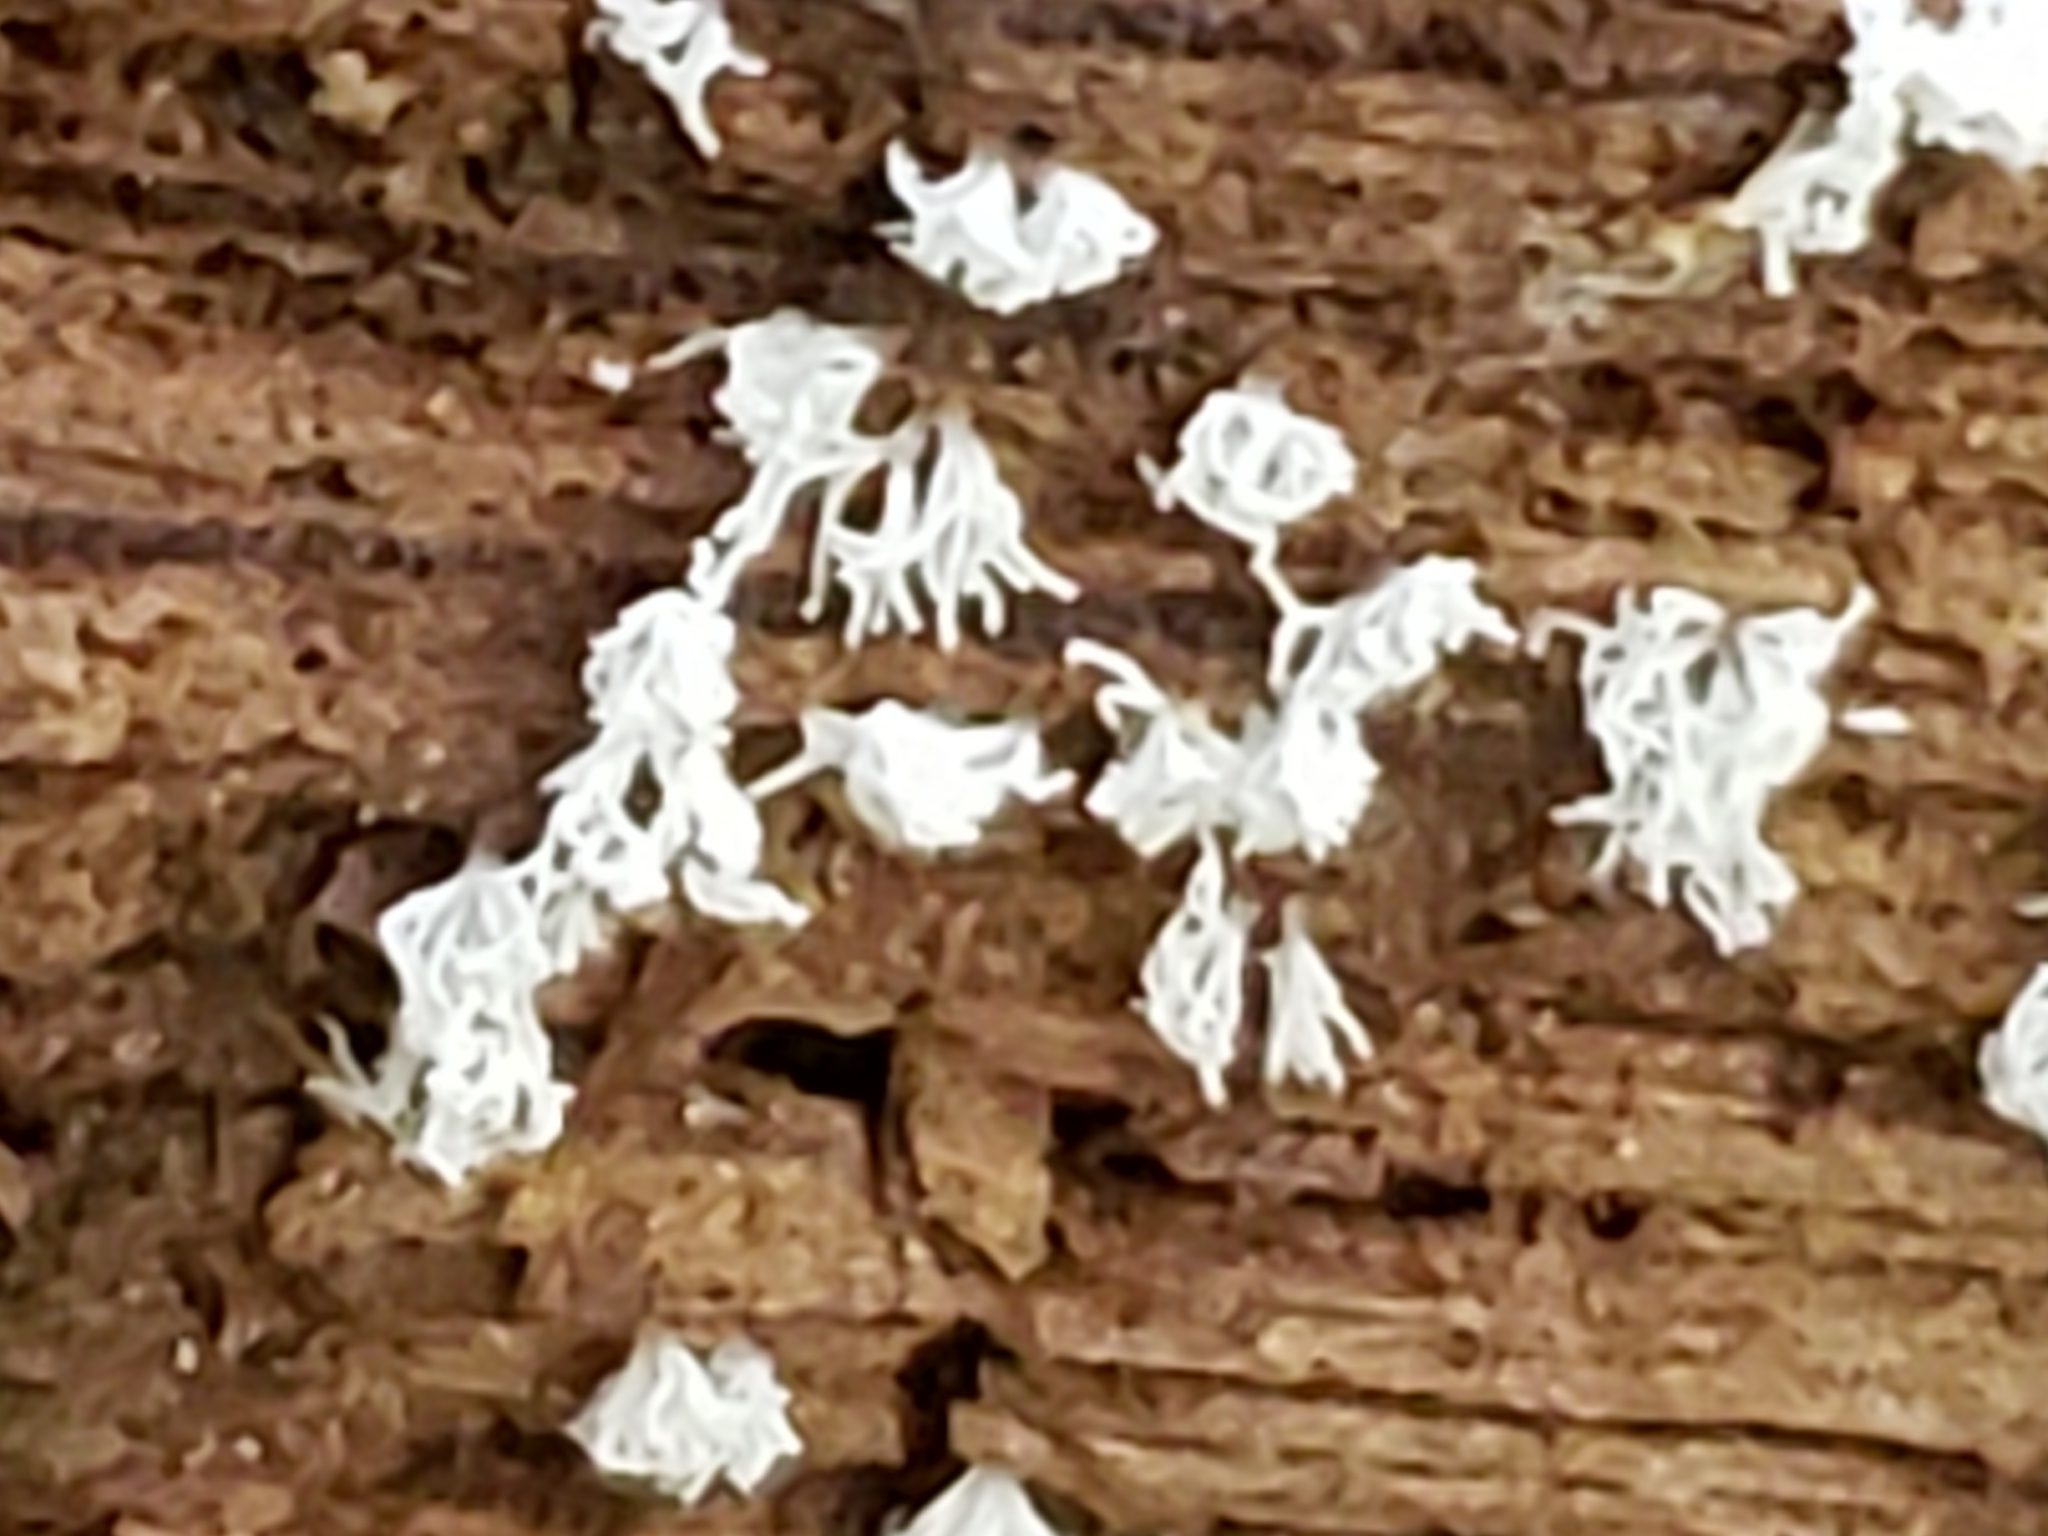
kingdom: Protozoa
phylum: Mycetozoa
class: Protosteliomycetes
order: Ceratiomyxales
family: Ceratiomyxaceae
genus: Ceratiomyxa
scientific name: Ceratiomyxa fruticulosa
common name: Honeycomb coral slime mold
